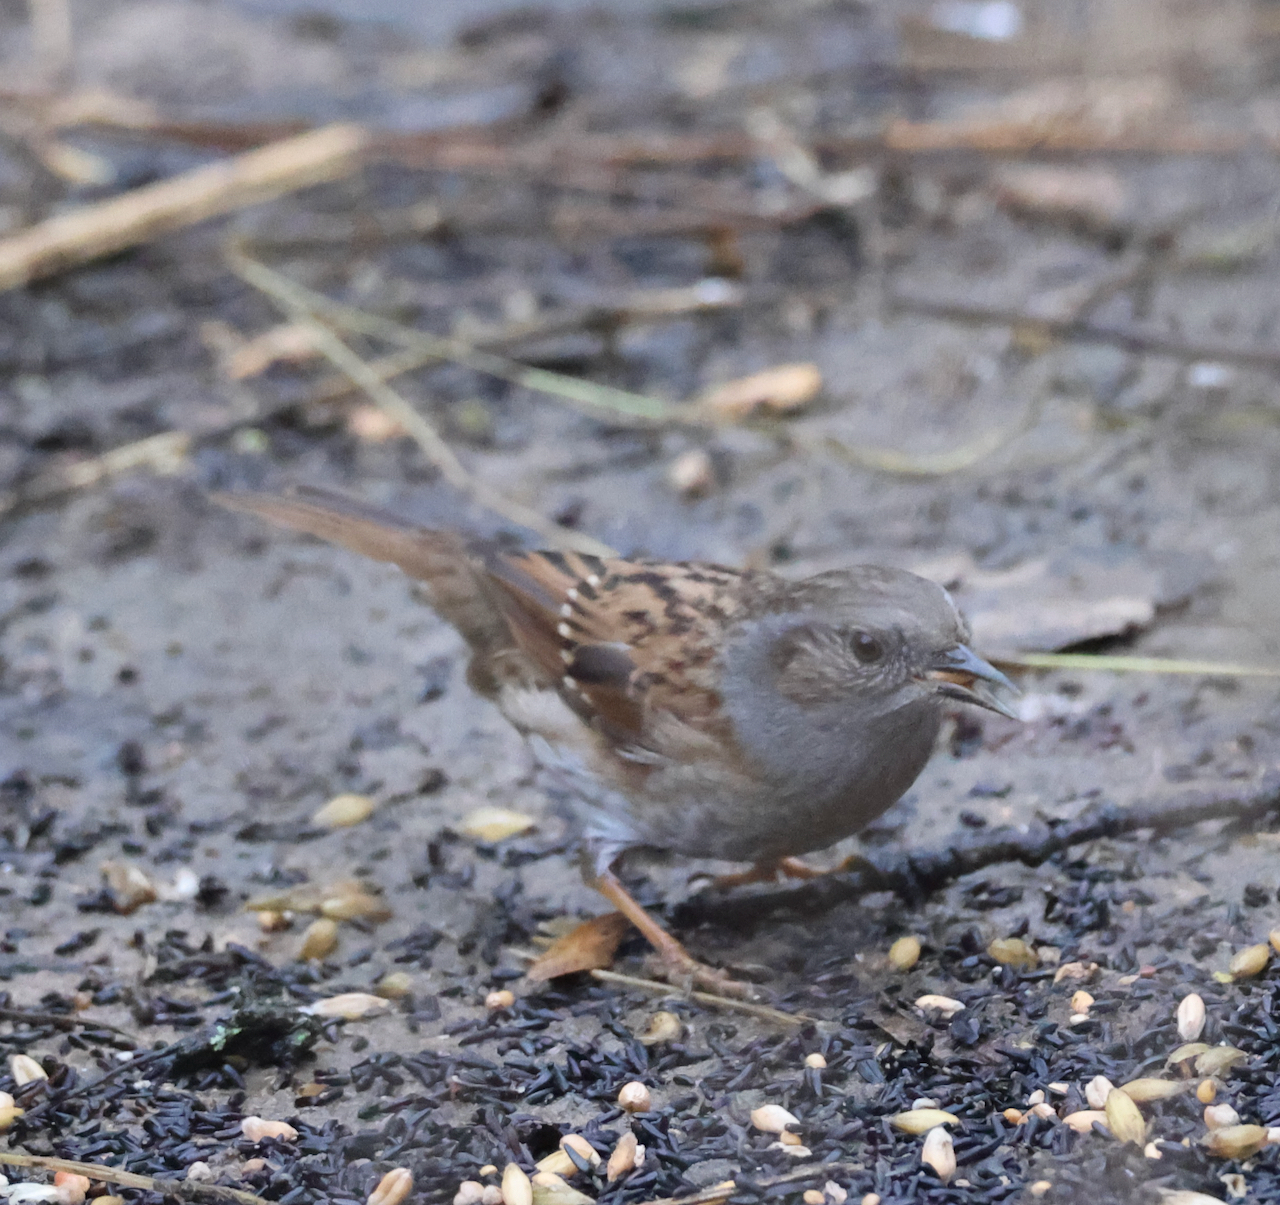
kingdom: Animalia
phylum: Chordata
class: Aves
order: Passeriformes
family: Prunellidae
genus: Prunella
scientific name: Prunella modularis
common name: Dunnock
